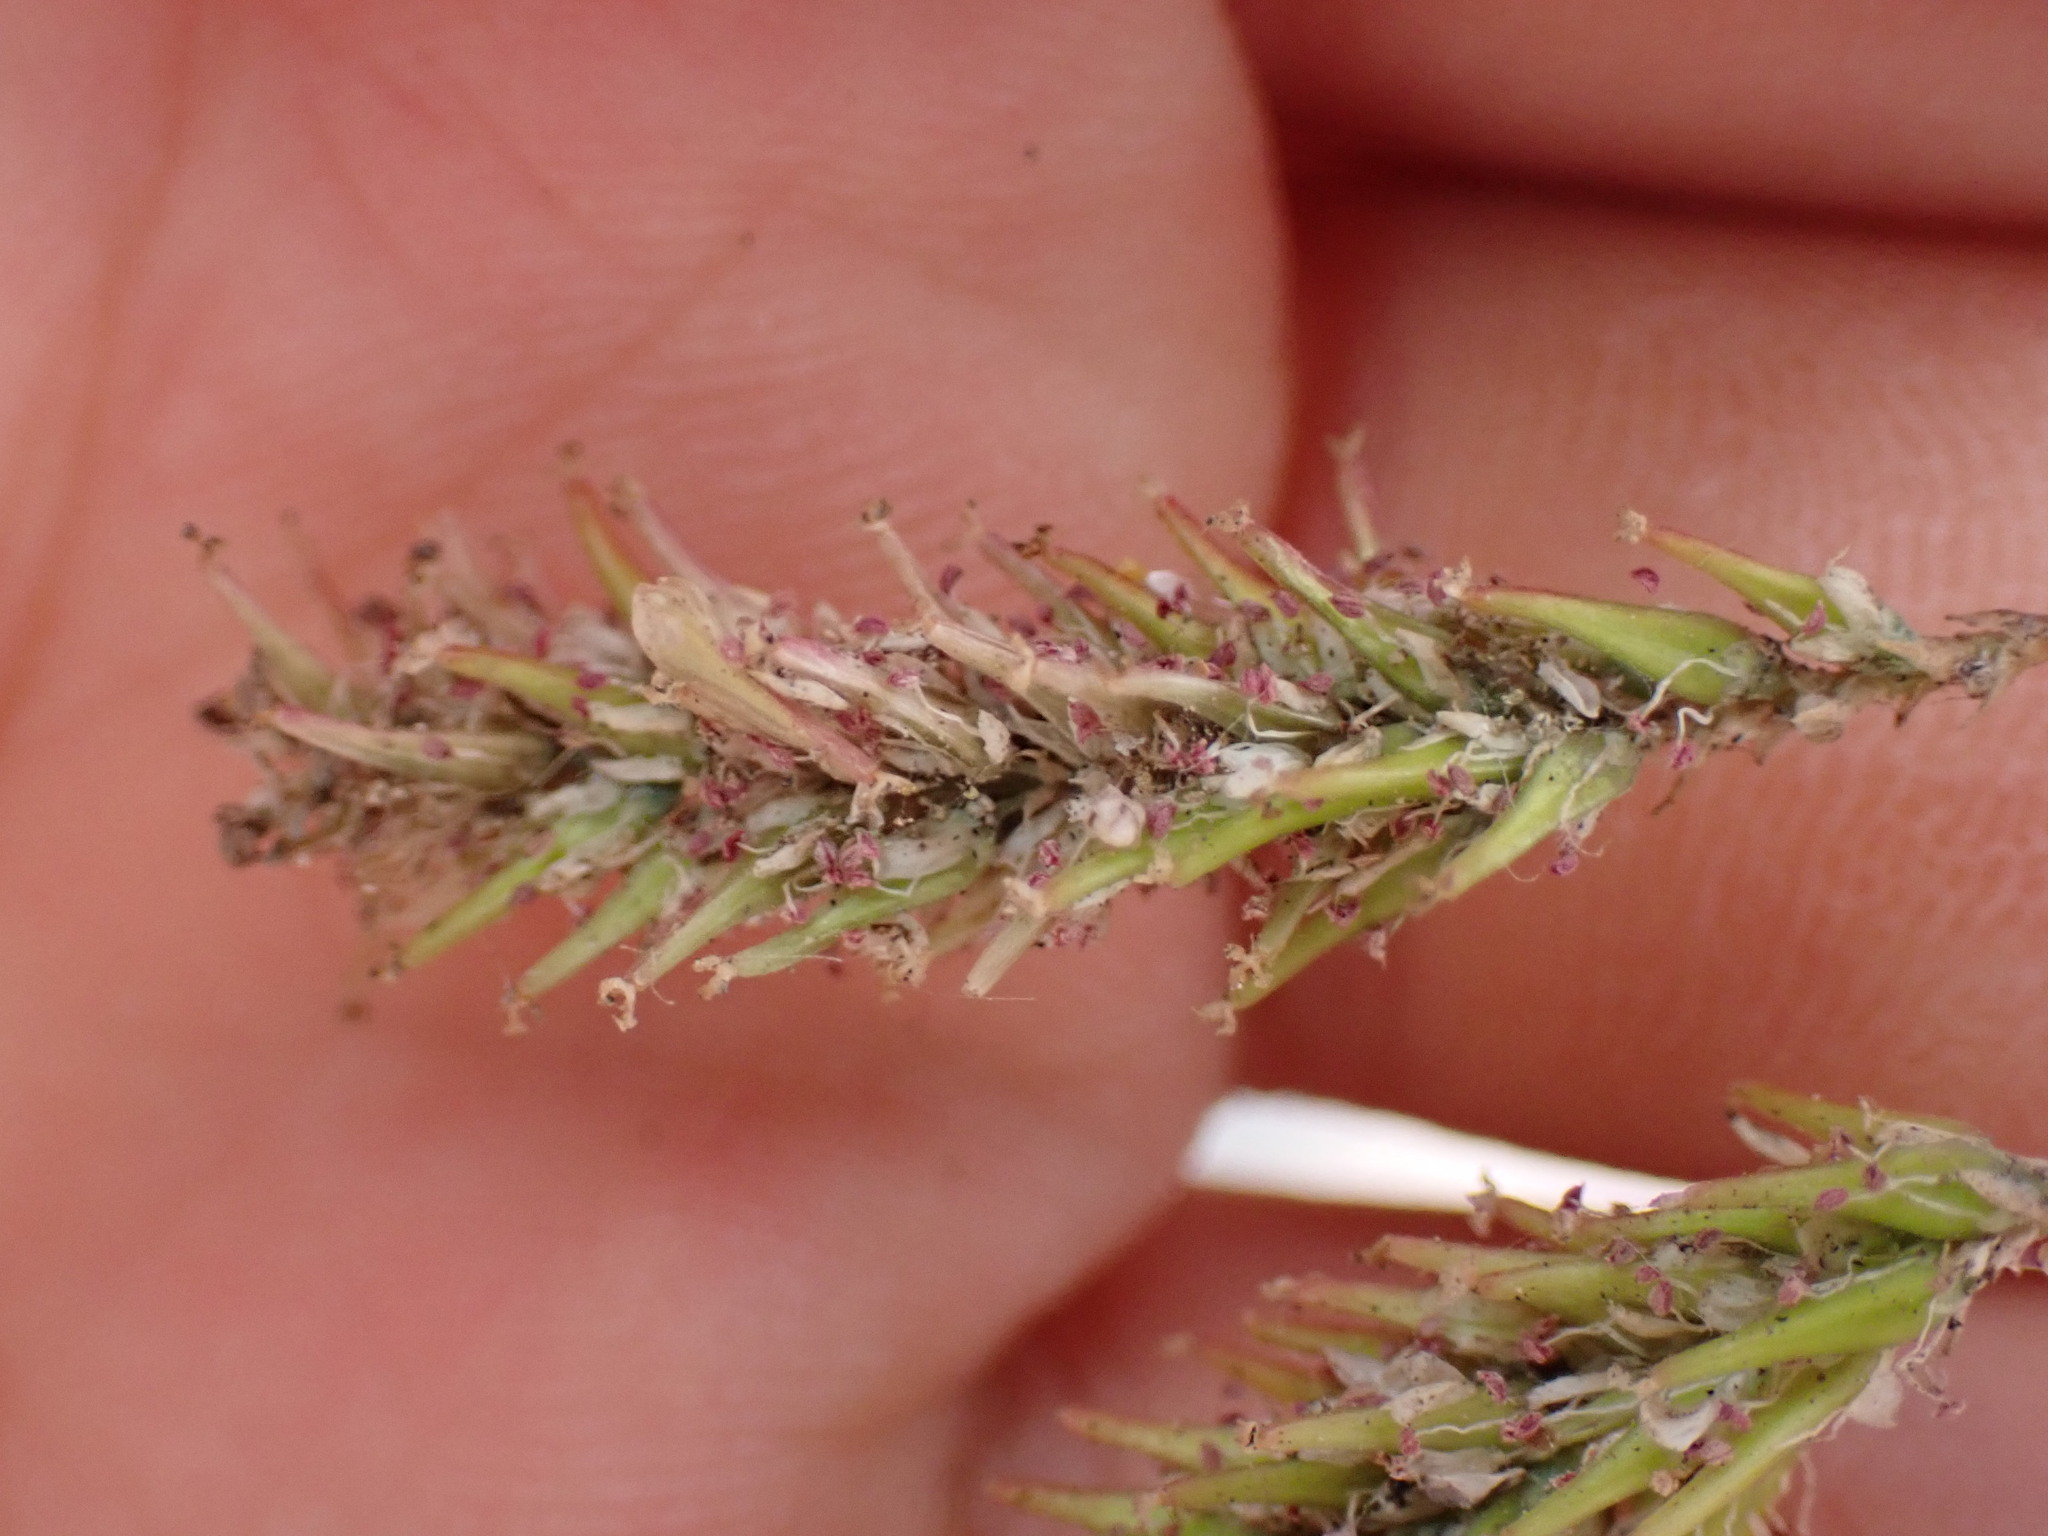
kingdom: Plantae
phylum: Tracheophyta
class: Magnoliopsida
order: Caryophyllales
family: Tamaricaceae
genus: Tamarix
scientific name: Tamarix canariensis
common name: Canary island tamarisk
